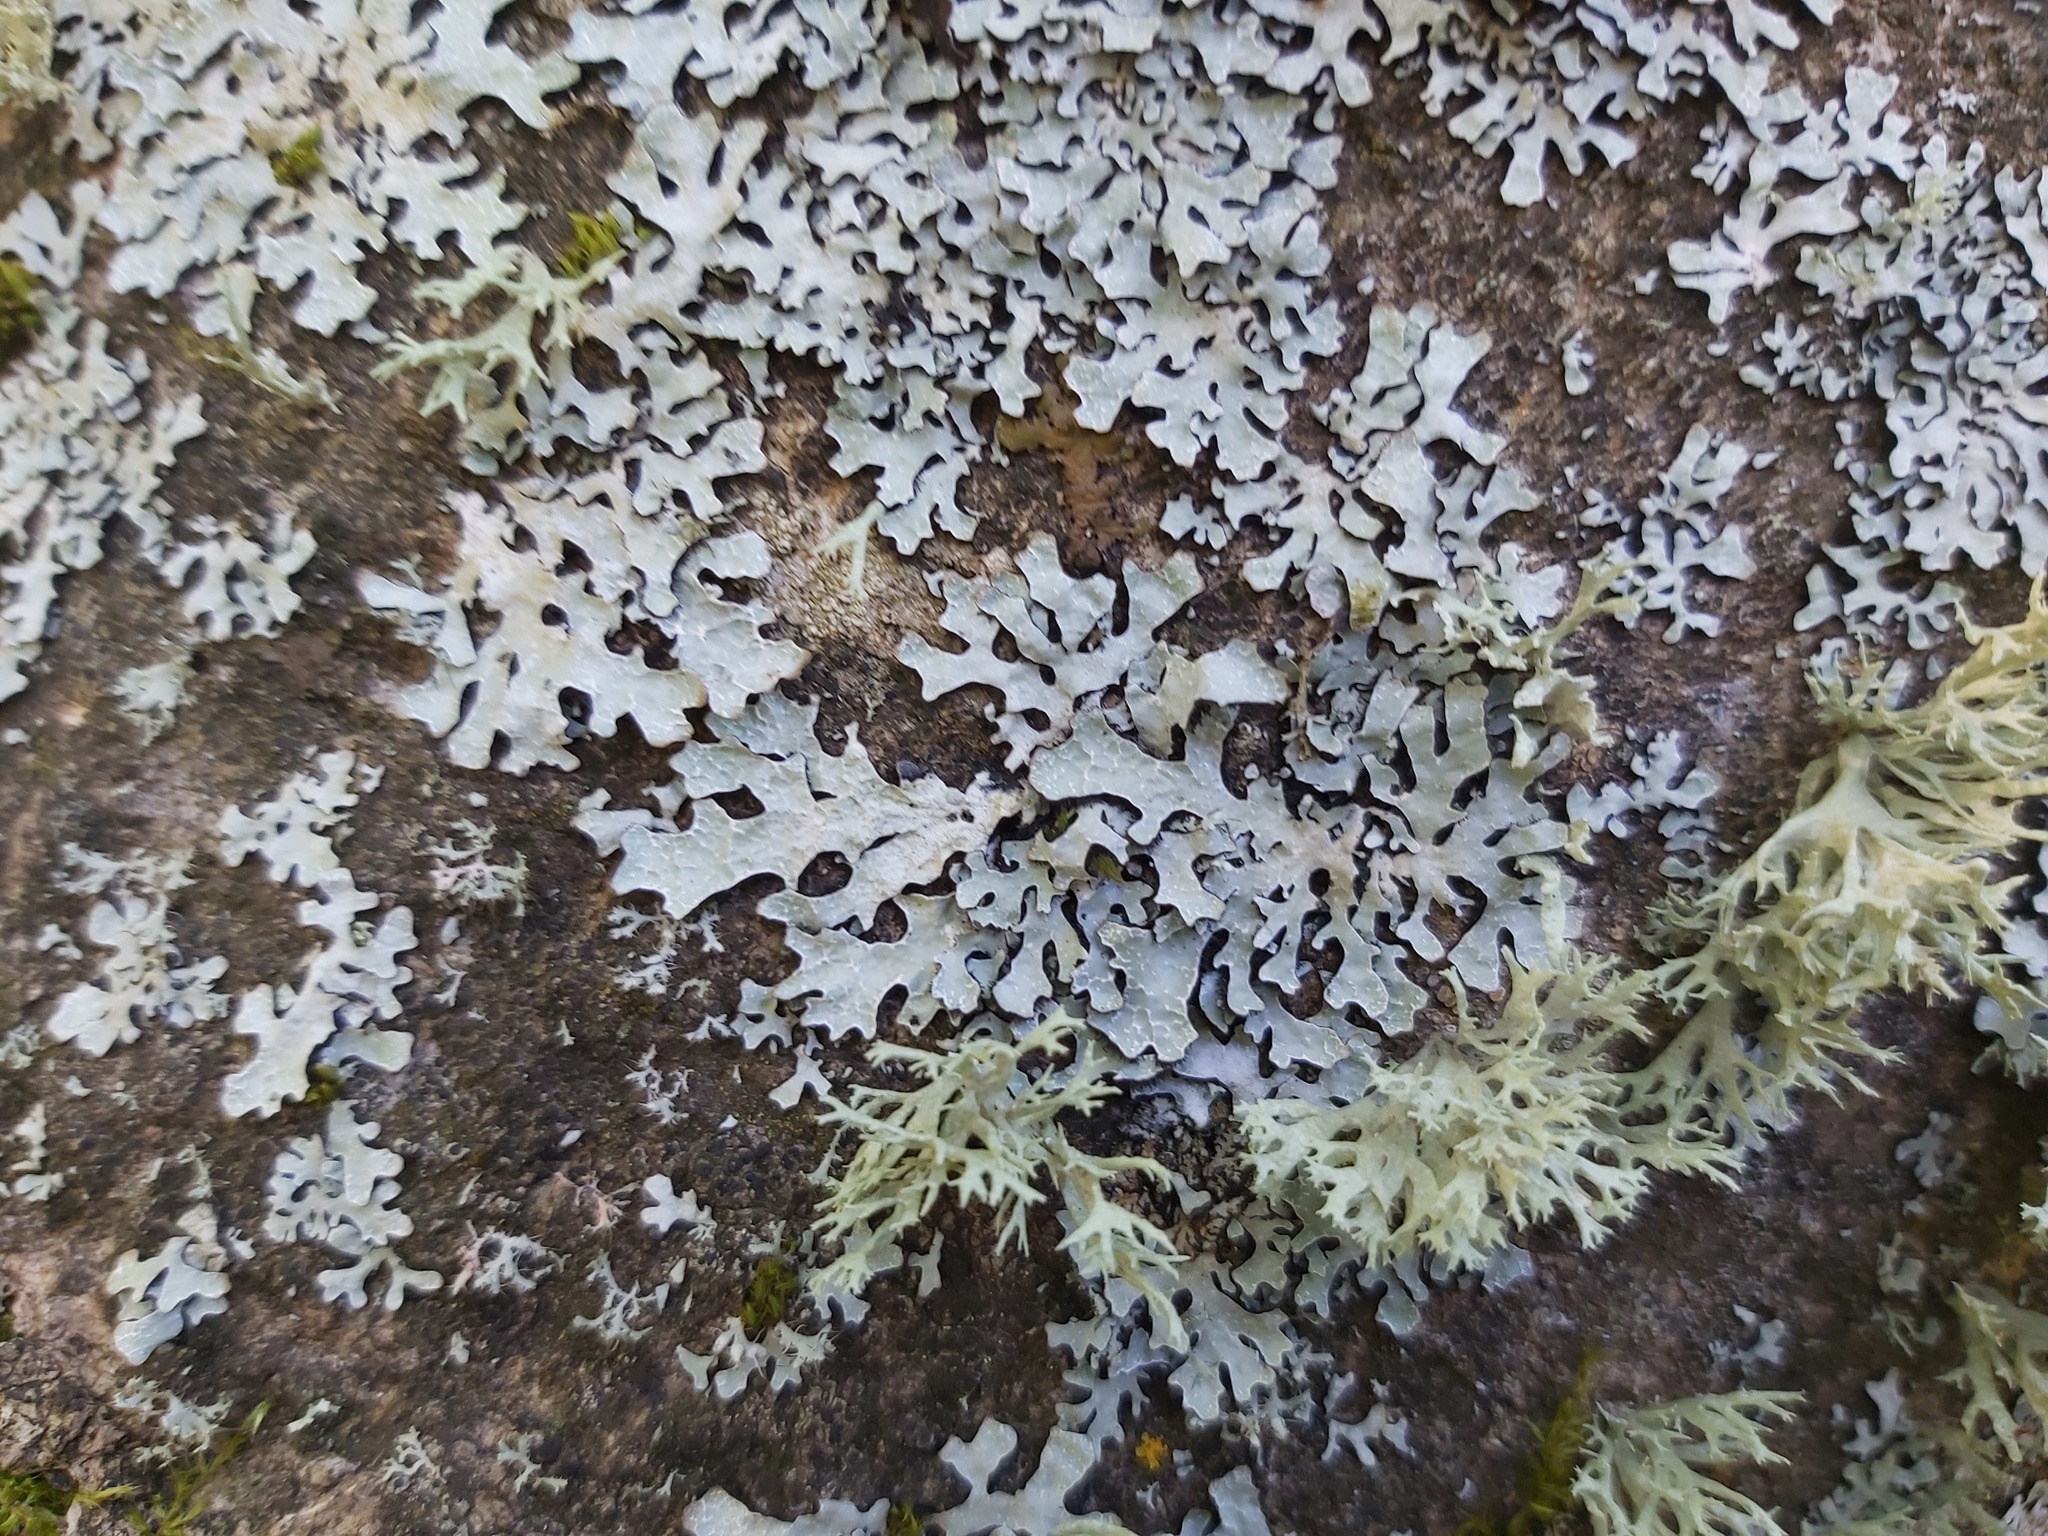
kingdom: Fungi
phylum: Ascomycota
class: Lecanoromycetes
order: Lecanorales
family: Parmeliaceae
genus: Parmelia
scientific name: Parmelia sulcata
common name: Netted shield lichen
